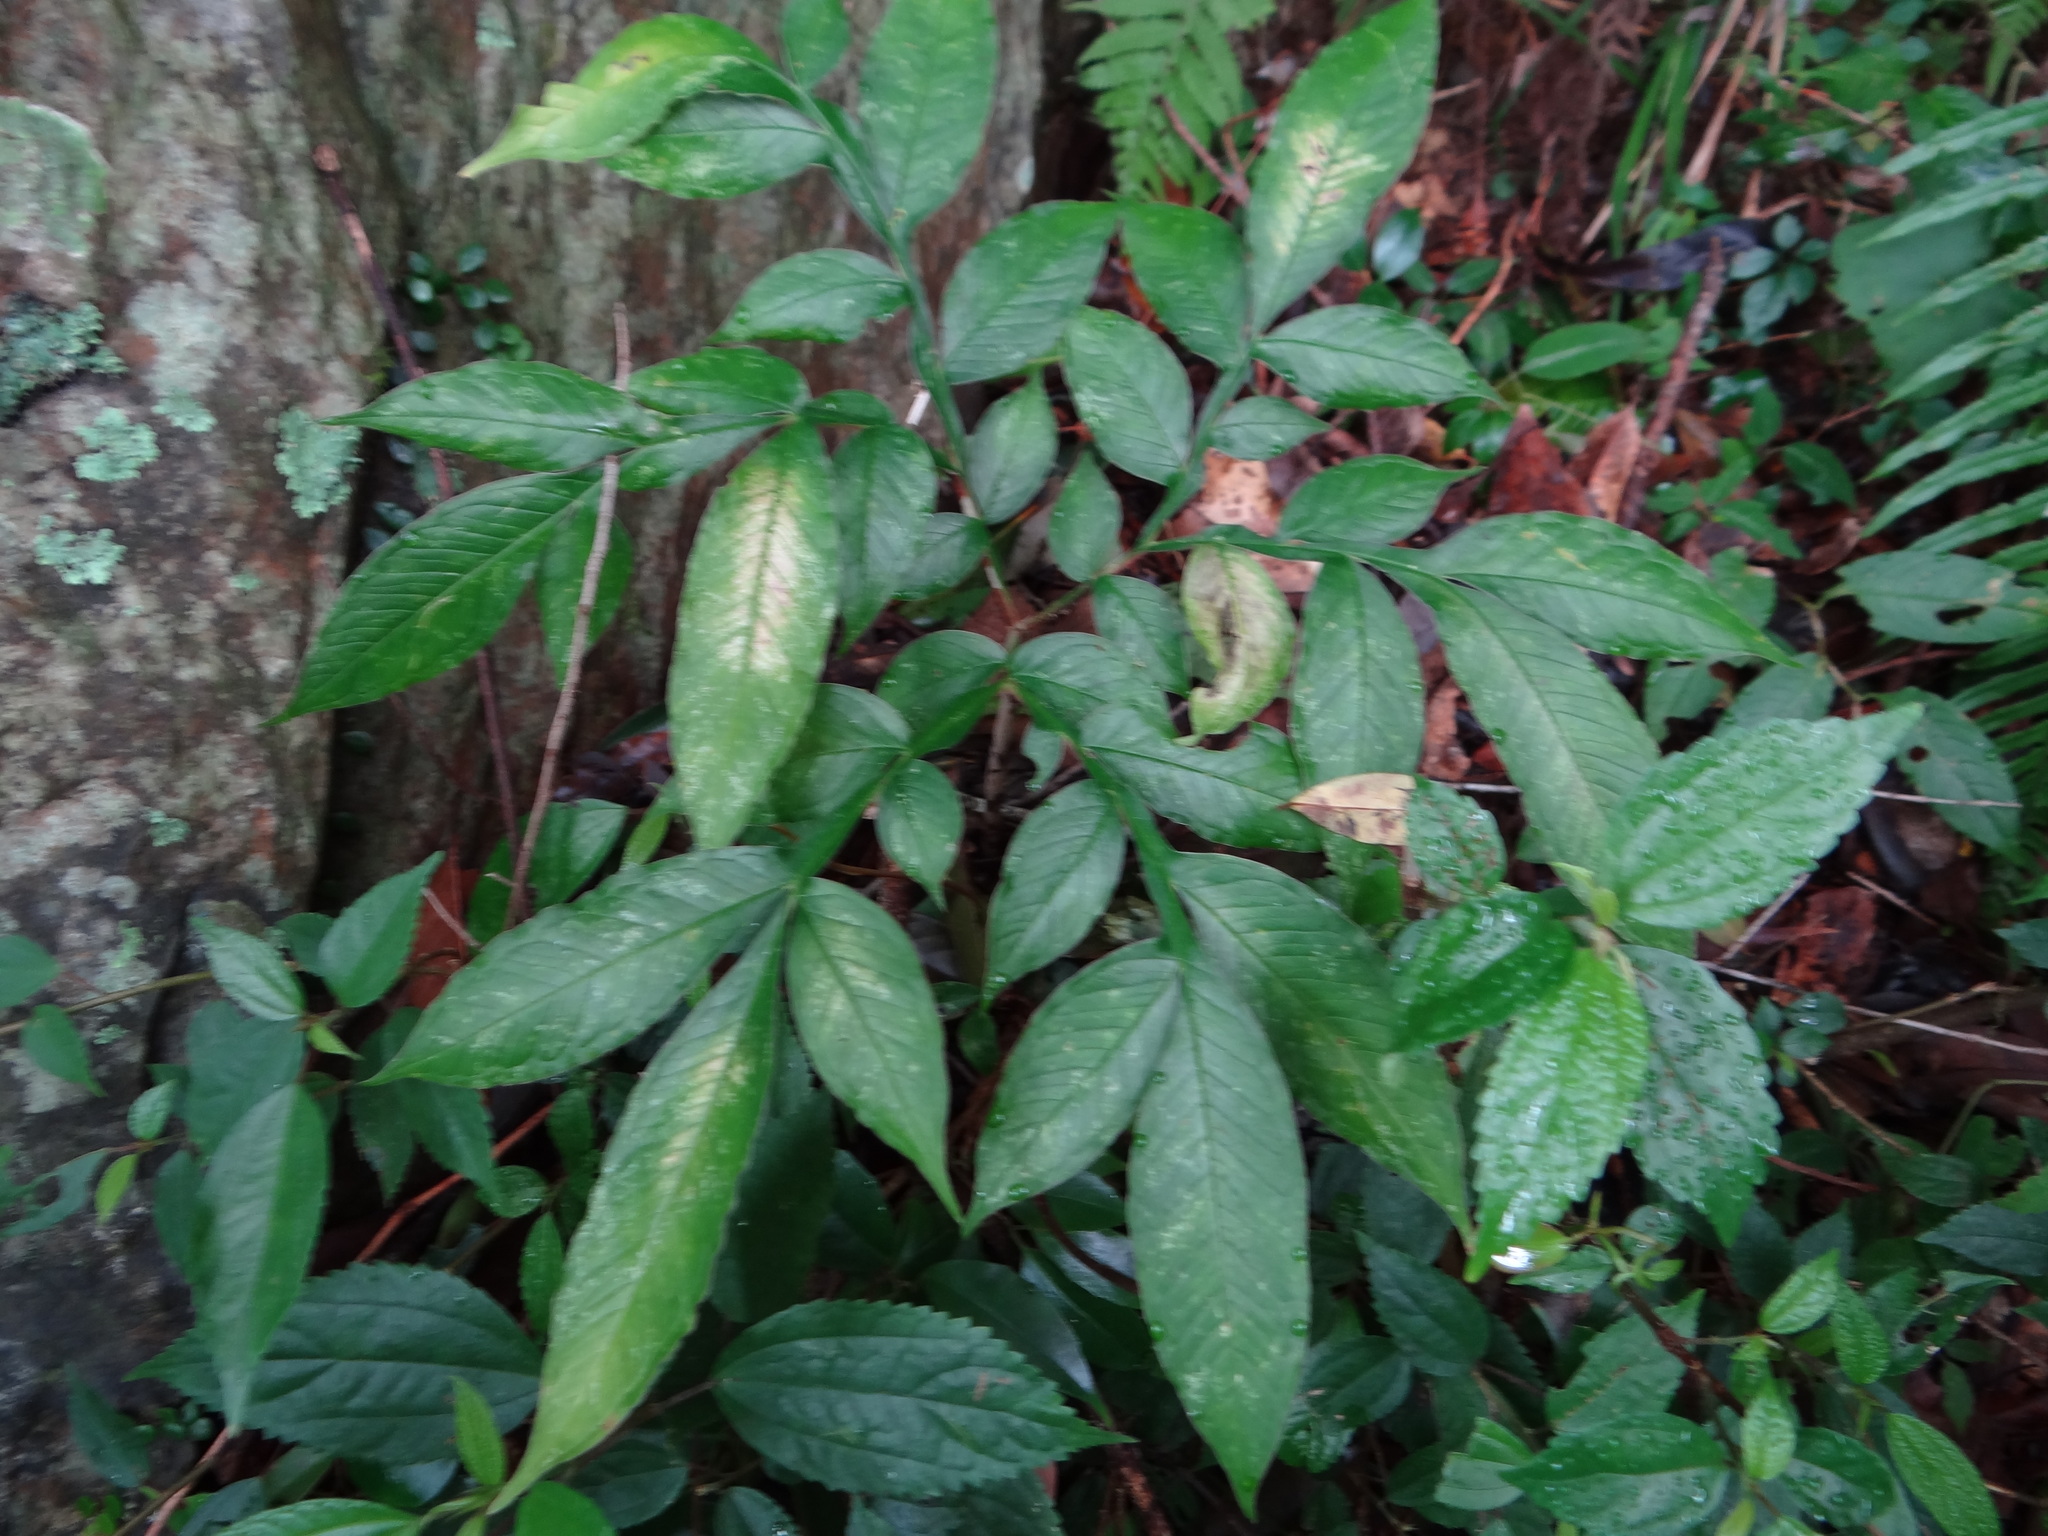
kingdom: Plantae
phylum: Tracheophyta
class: Liliopsida
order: Alismatales
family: Araceae
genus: Amorphophallus
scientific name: Amorphophallus kiusianus
